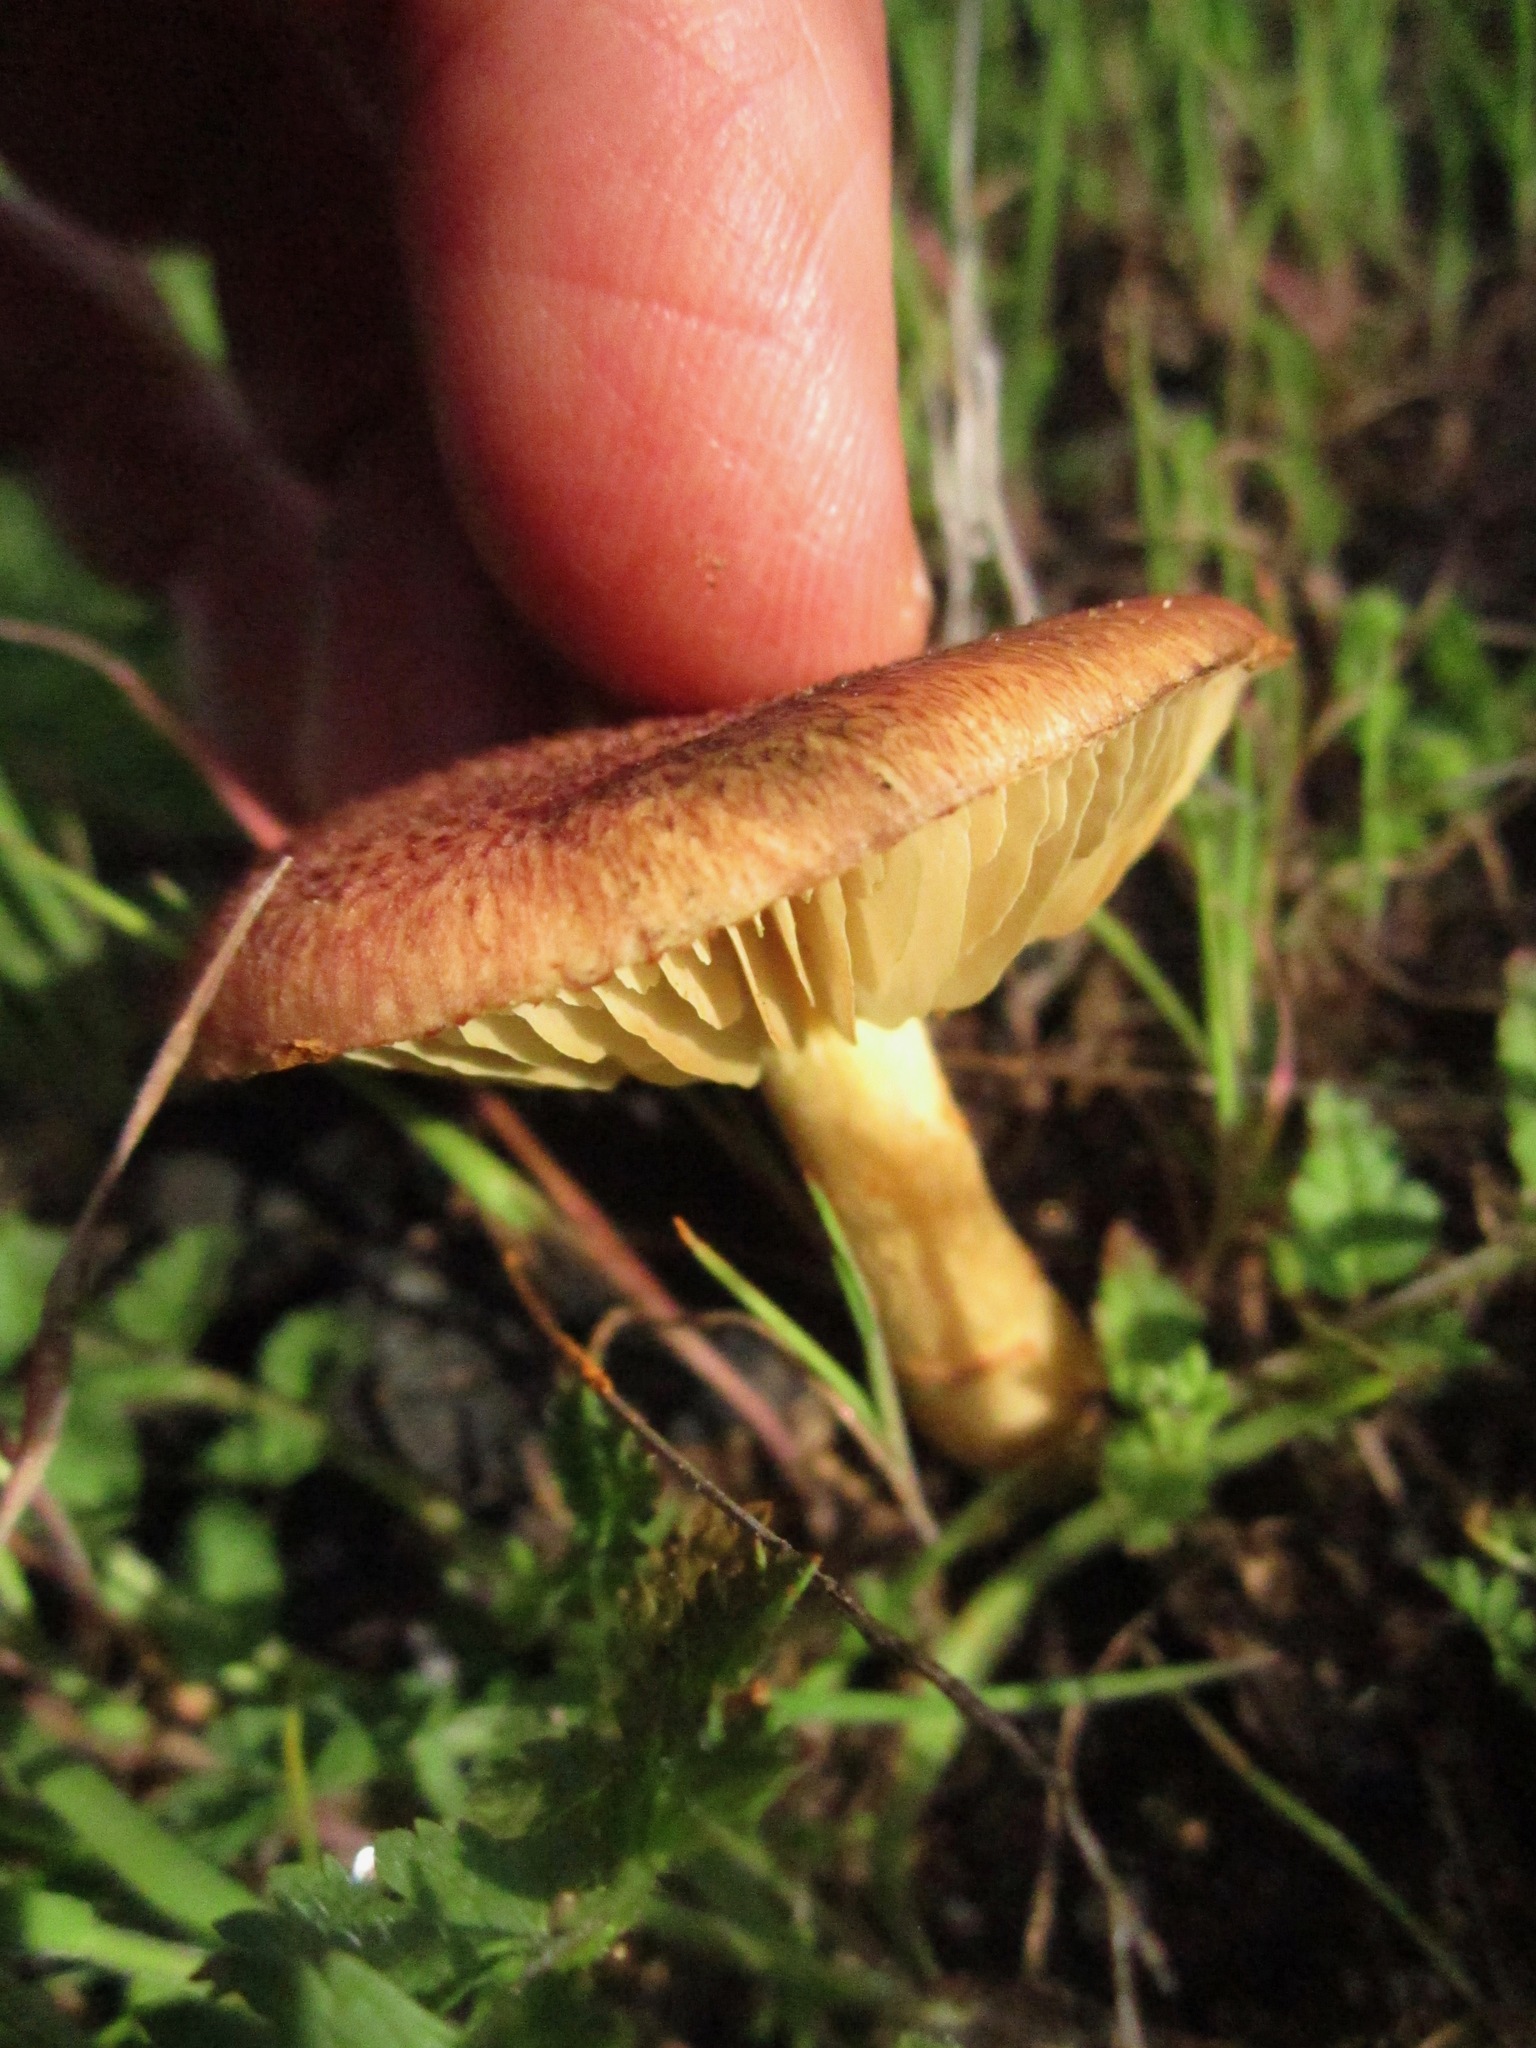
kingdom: Fungi
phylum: Basidiomycota
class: Agaricomycetes
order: Agaricales
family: Hymenogastraceae
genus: Gymnopilus
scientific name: Gymnopilus thiersii
